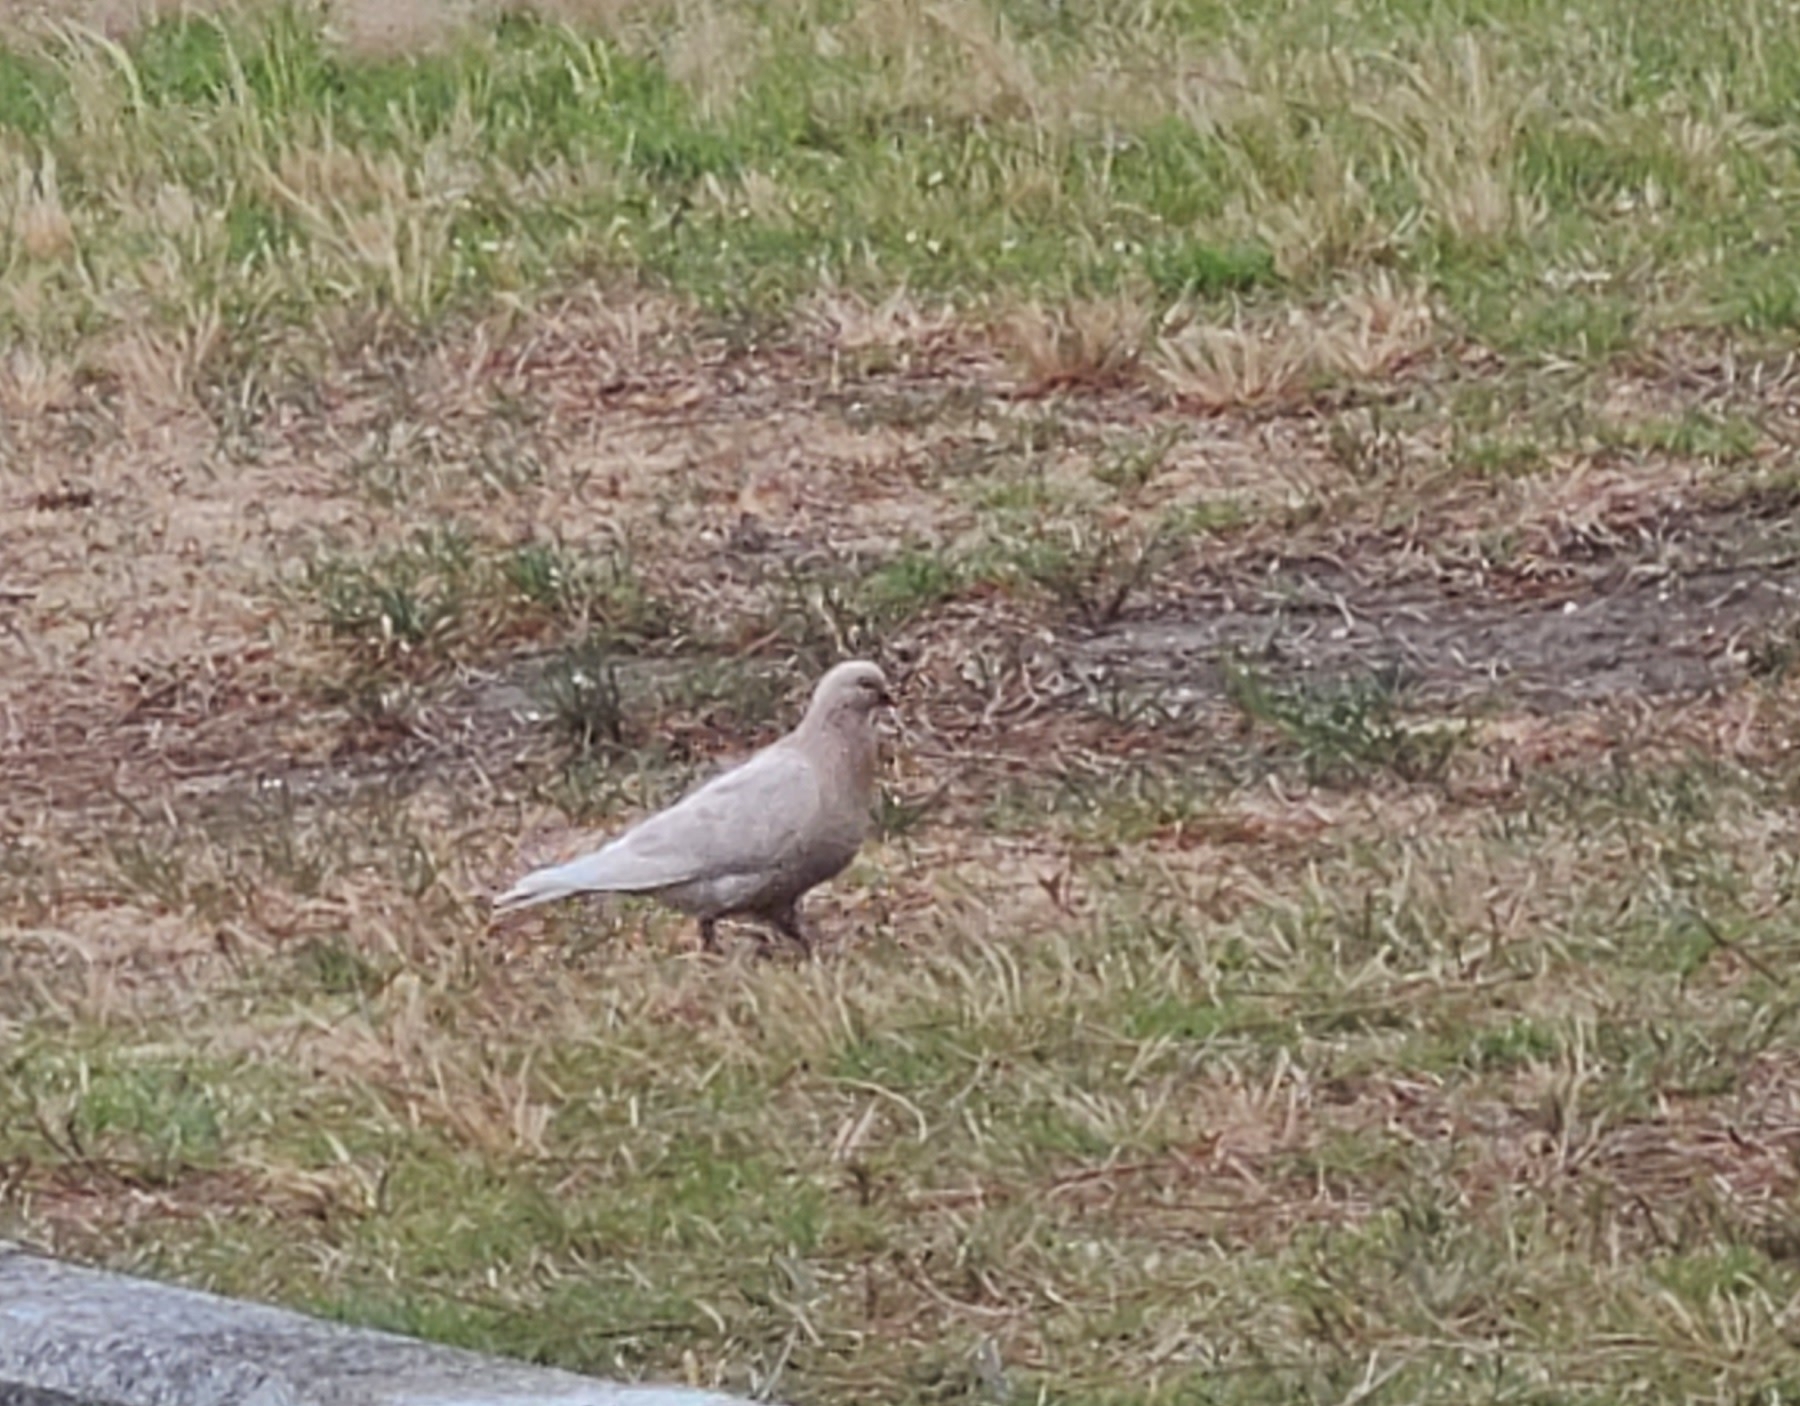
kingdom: Animalia
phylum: Chordata
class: Aves
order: Columbiformes
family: Columbidae
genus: Columba
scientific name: Columba livia
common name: Rock pigeon
